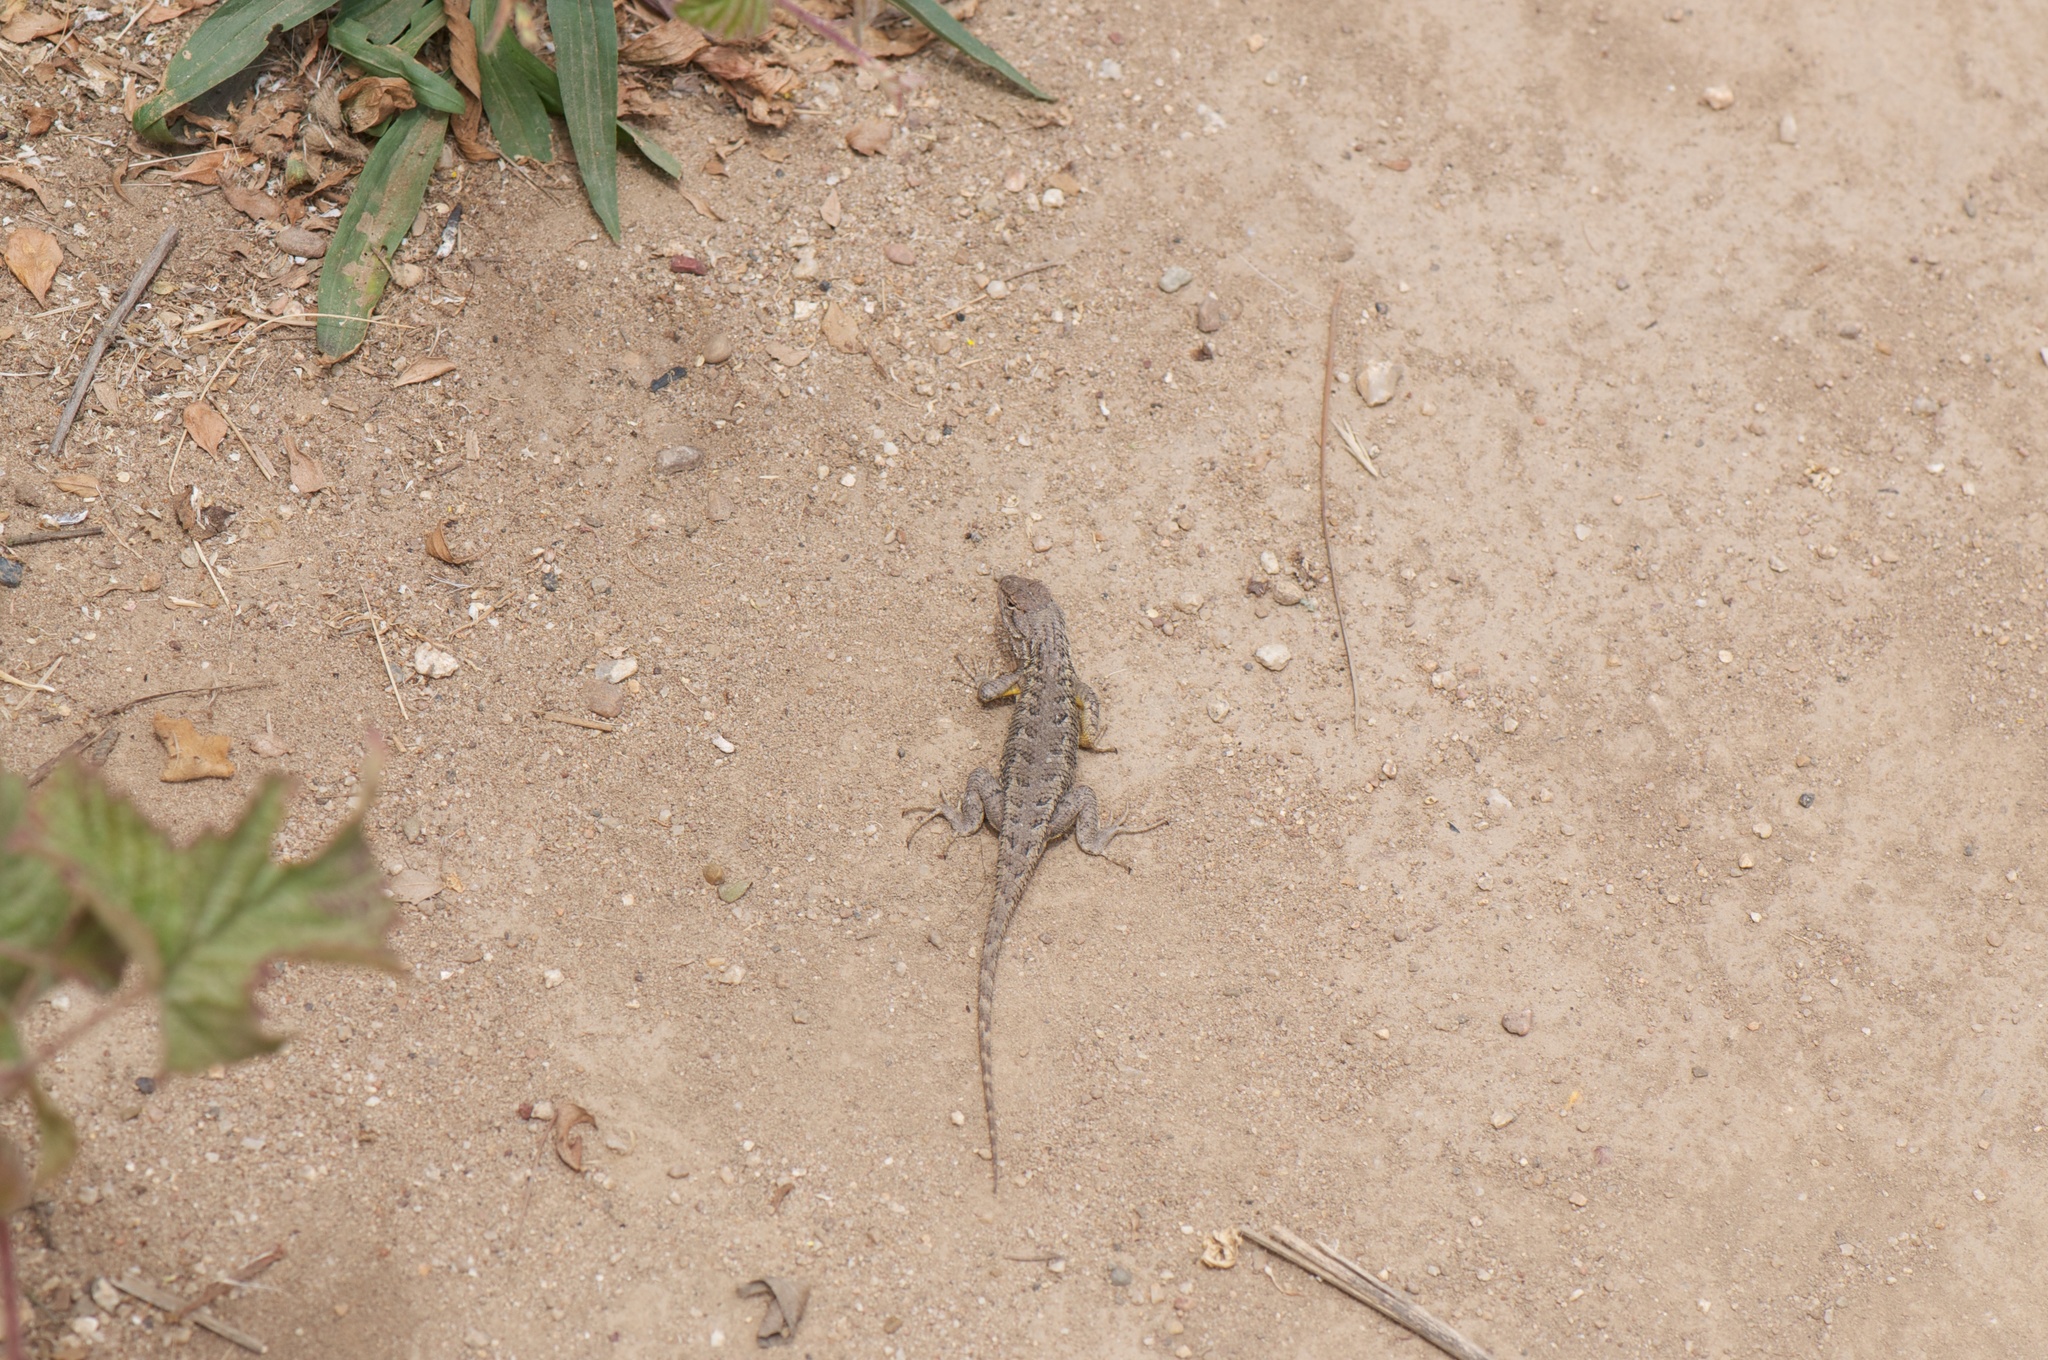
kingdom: Animalia
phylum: Chordata
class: Squamata
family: Phrynosomatidae
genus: Sceloporus
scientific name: Sceloporus occidentalis
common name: Western fence lizard
